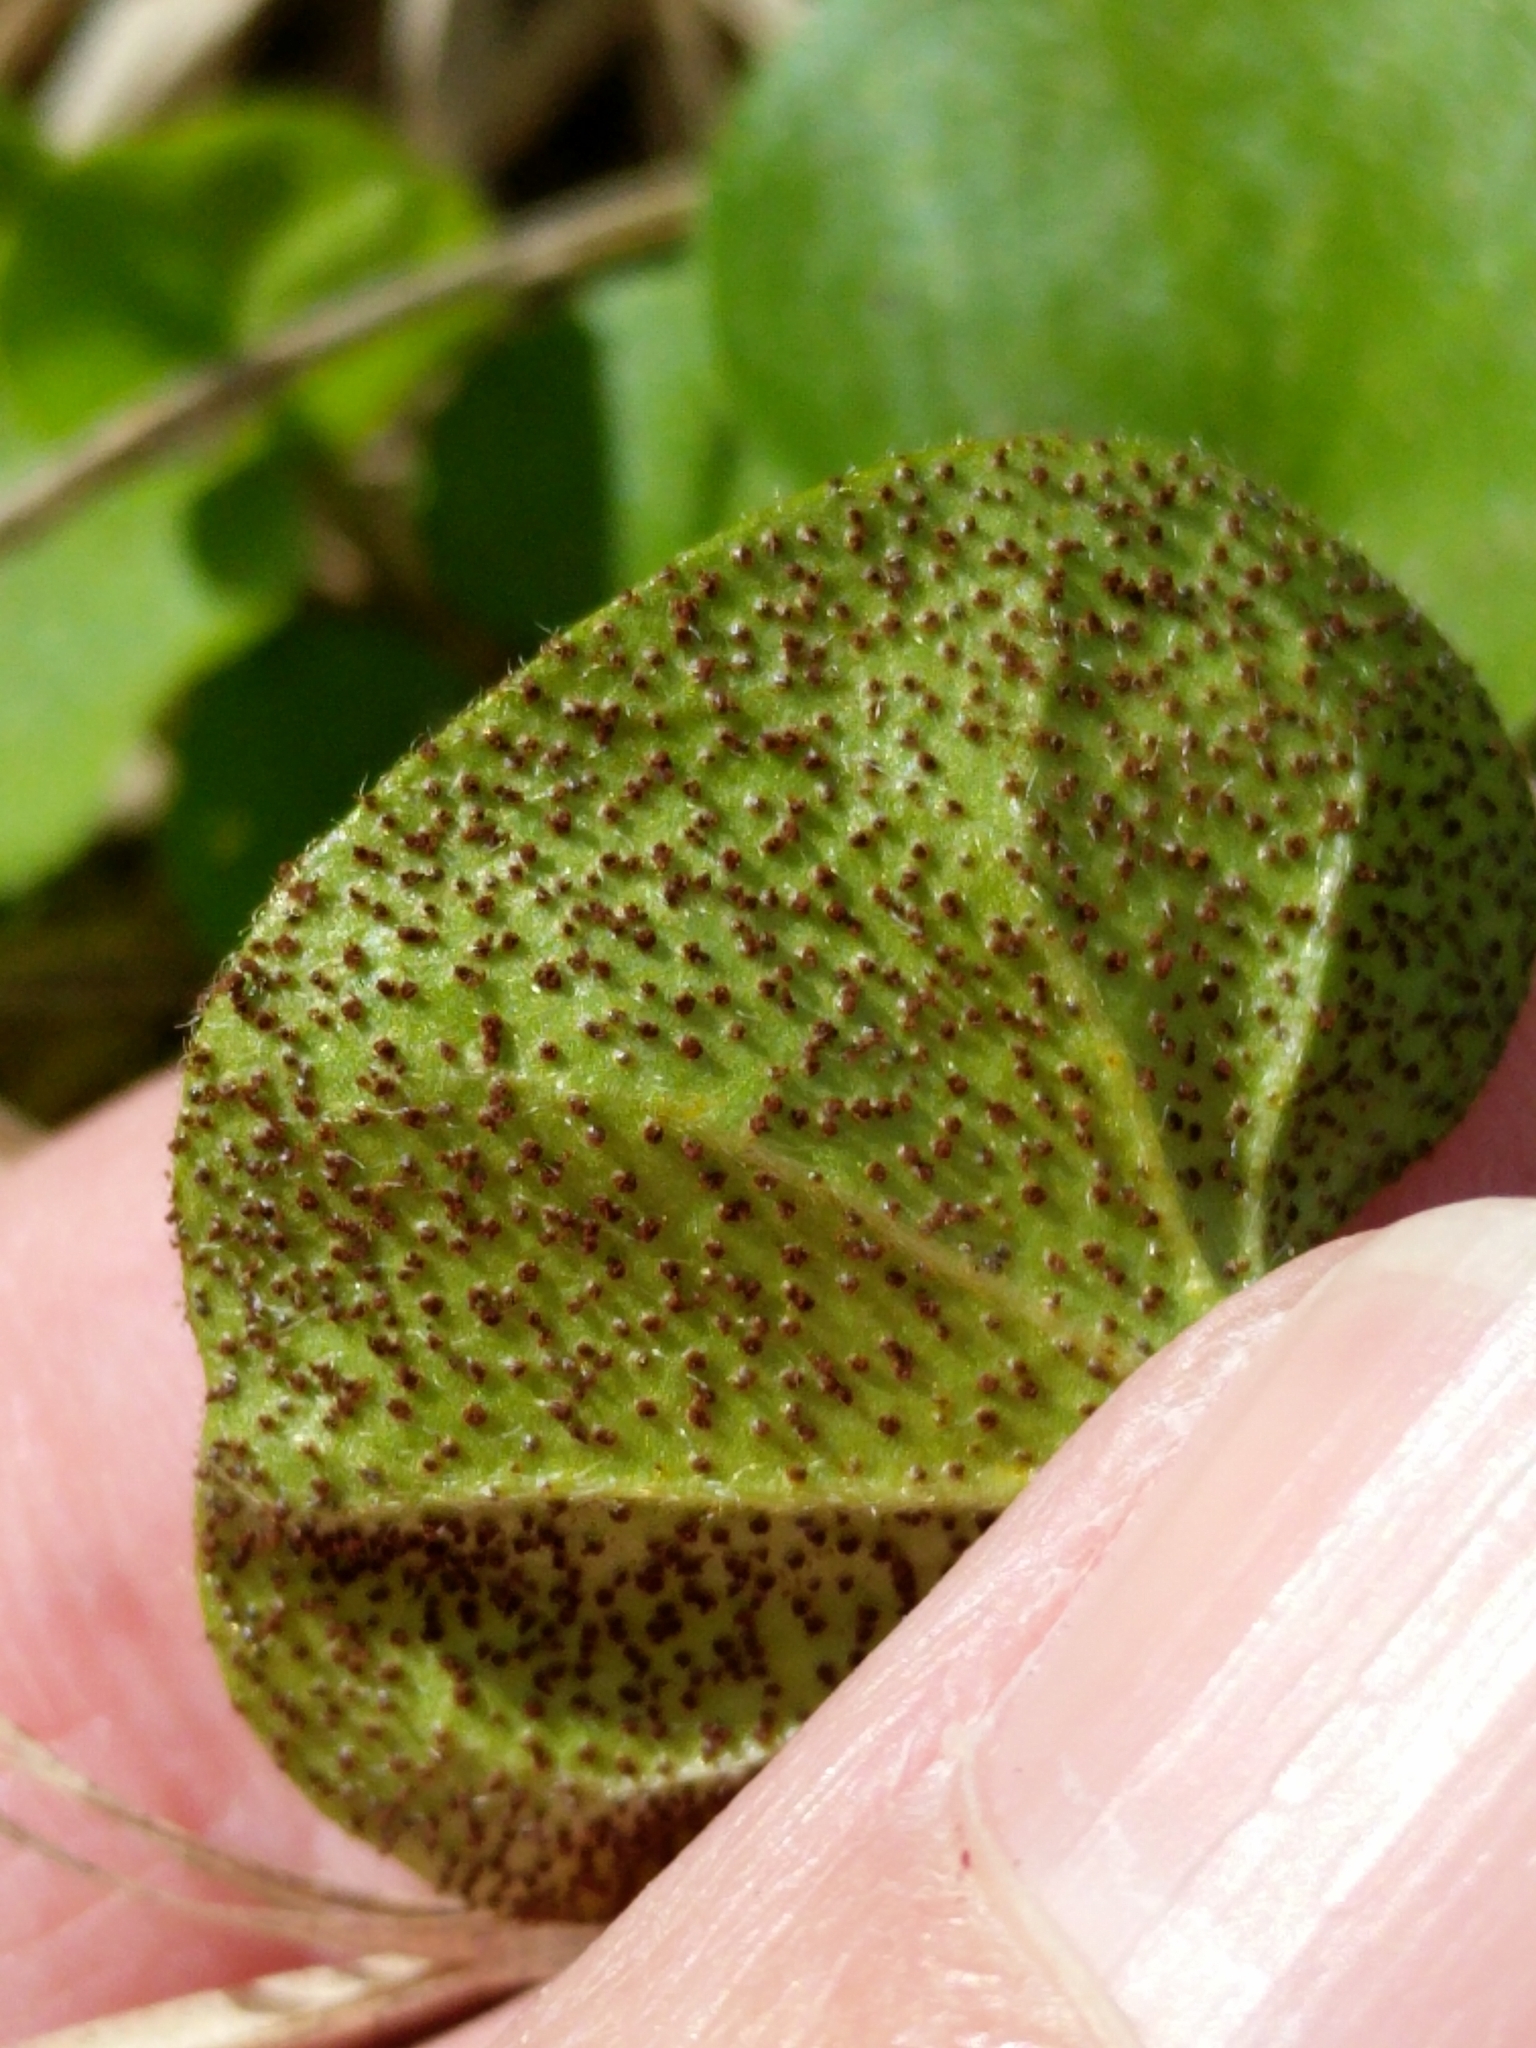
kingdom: Plantae
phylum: Tracheophyta
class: Magnoliopsida
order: Solanales
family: Convolvulaceae
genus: Dichondra
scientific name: Dichondra carolinensis
